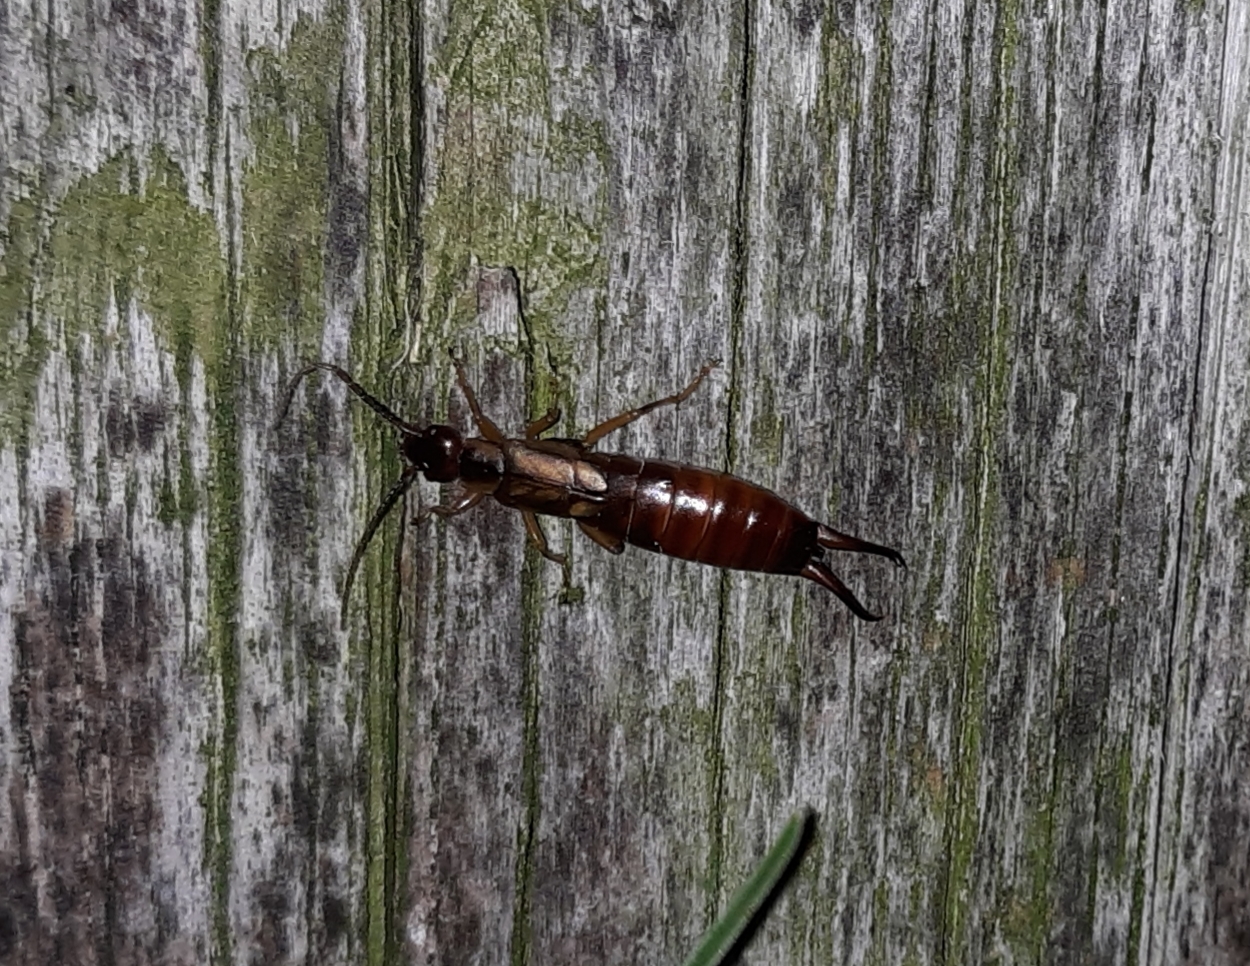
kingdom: Animalia
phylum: Arthropoda
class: Insecta
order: Dermaptera
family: Forficulidae
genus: Forficula
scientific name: Forficula
